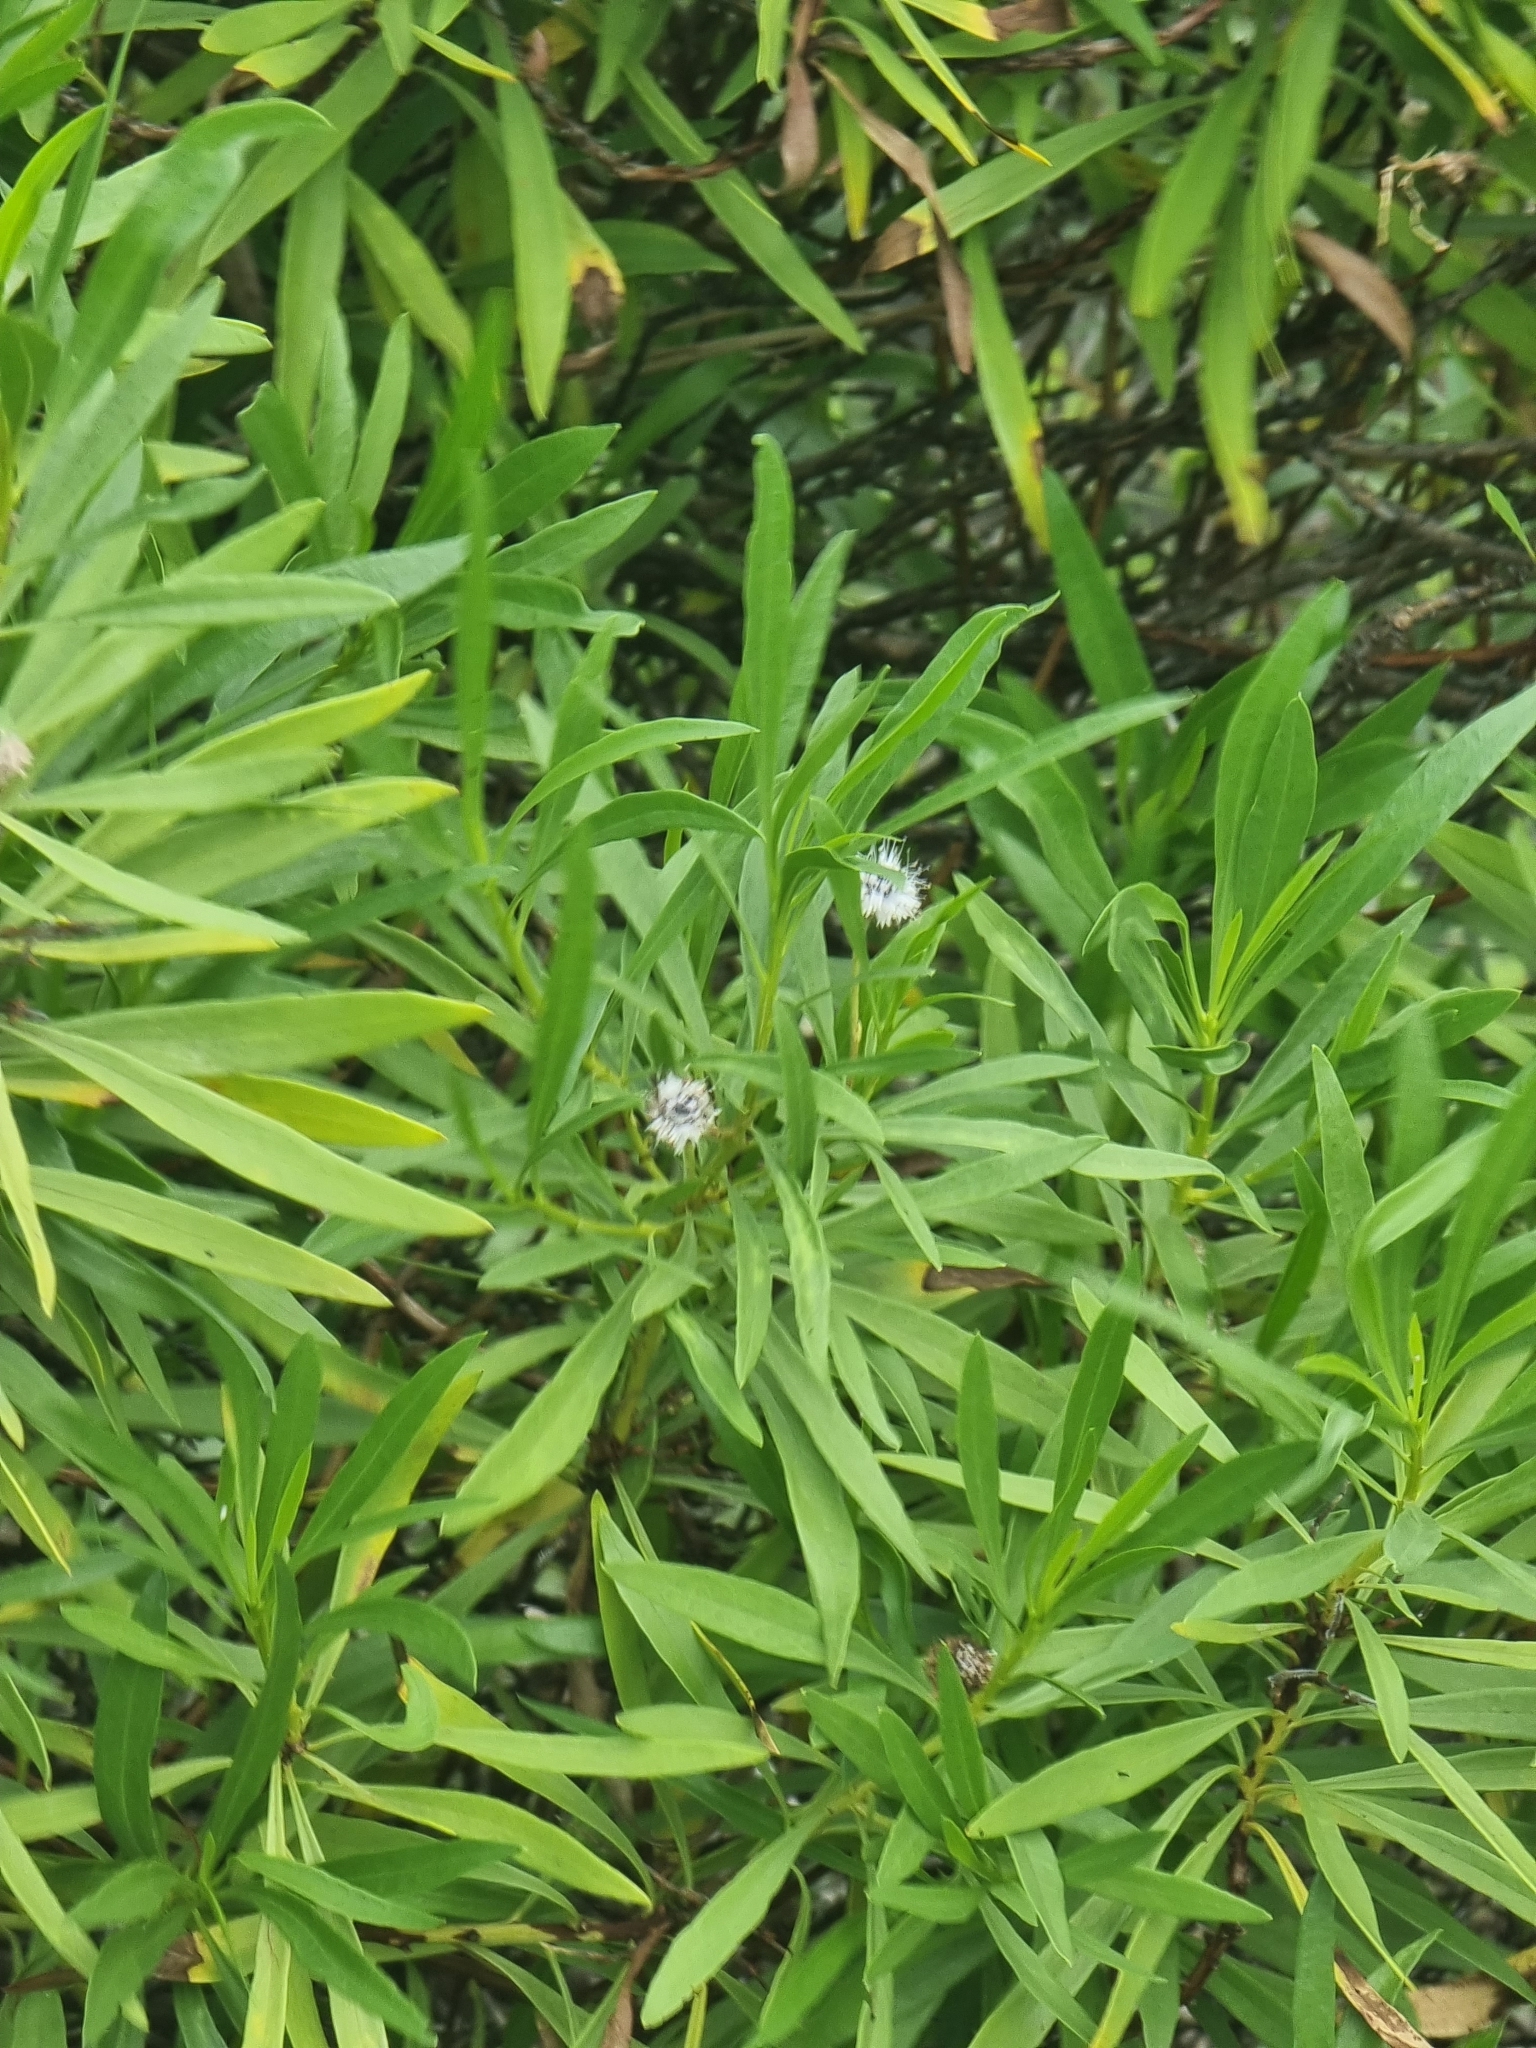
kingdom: Plantae
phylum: Tracheophyta
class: Magnoliopsida
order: Lamiales
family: Plantaginaceae
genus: Globularia
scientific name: Globularia salicina
